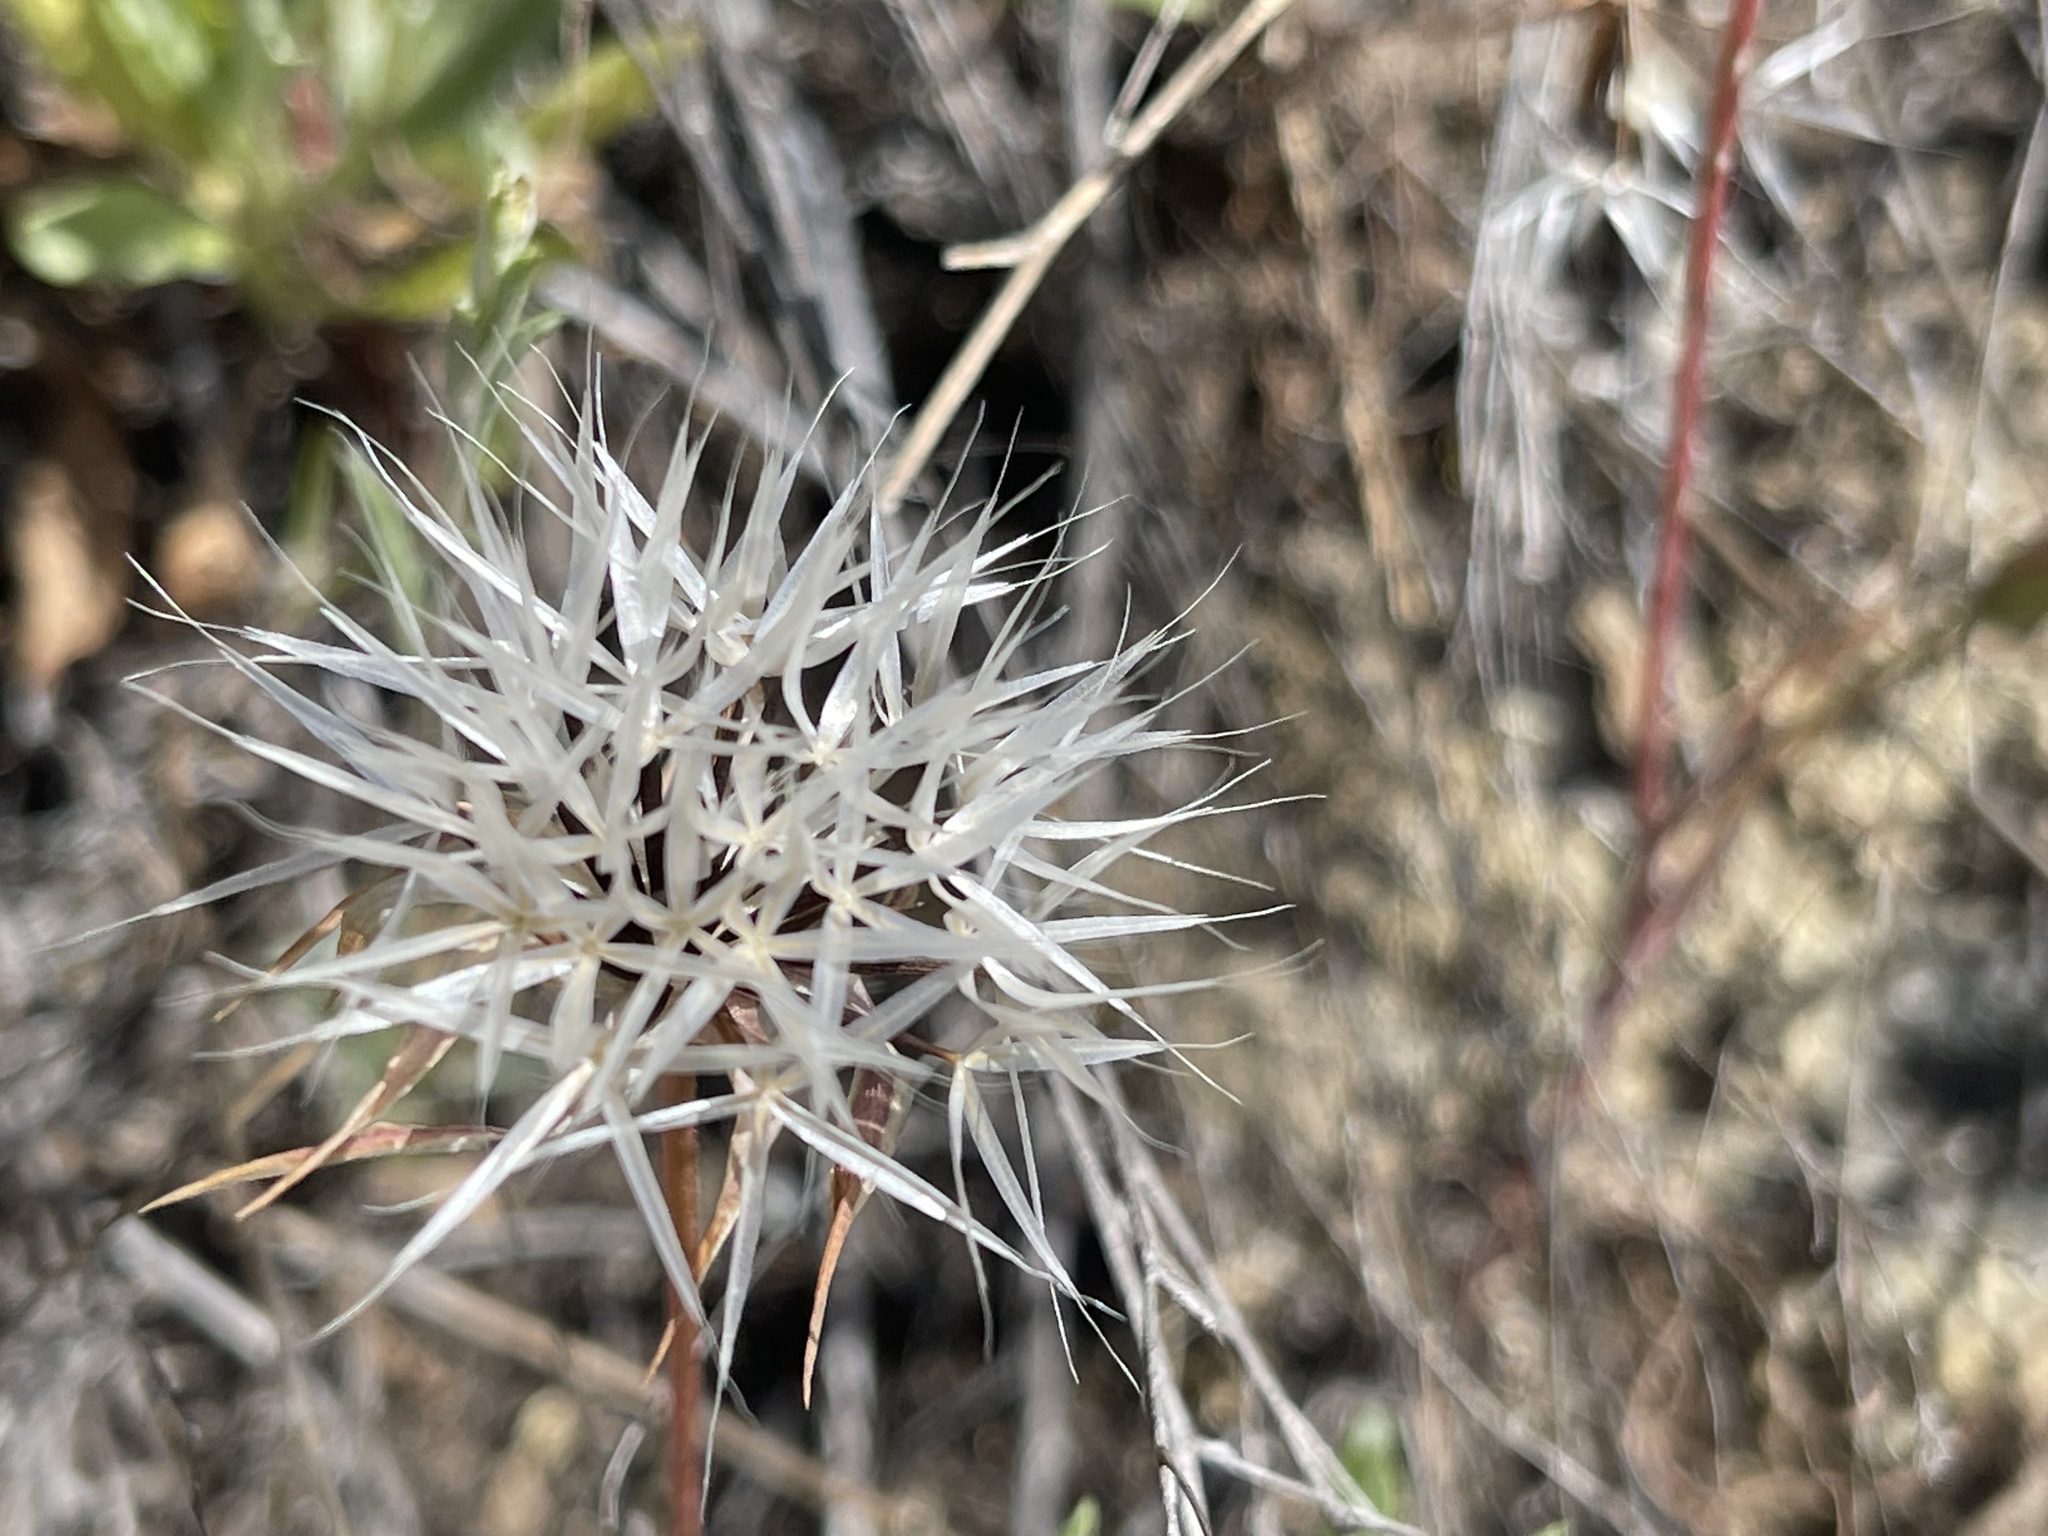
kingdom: Plantae
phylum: Tracheophyta
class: Magnoliopsida
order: Asterales
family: Asteraceae
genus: Microseris
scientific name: Microseris lindleyi
